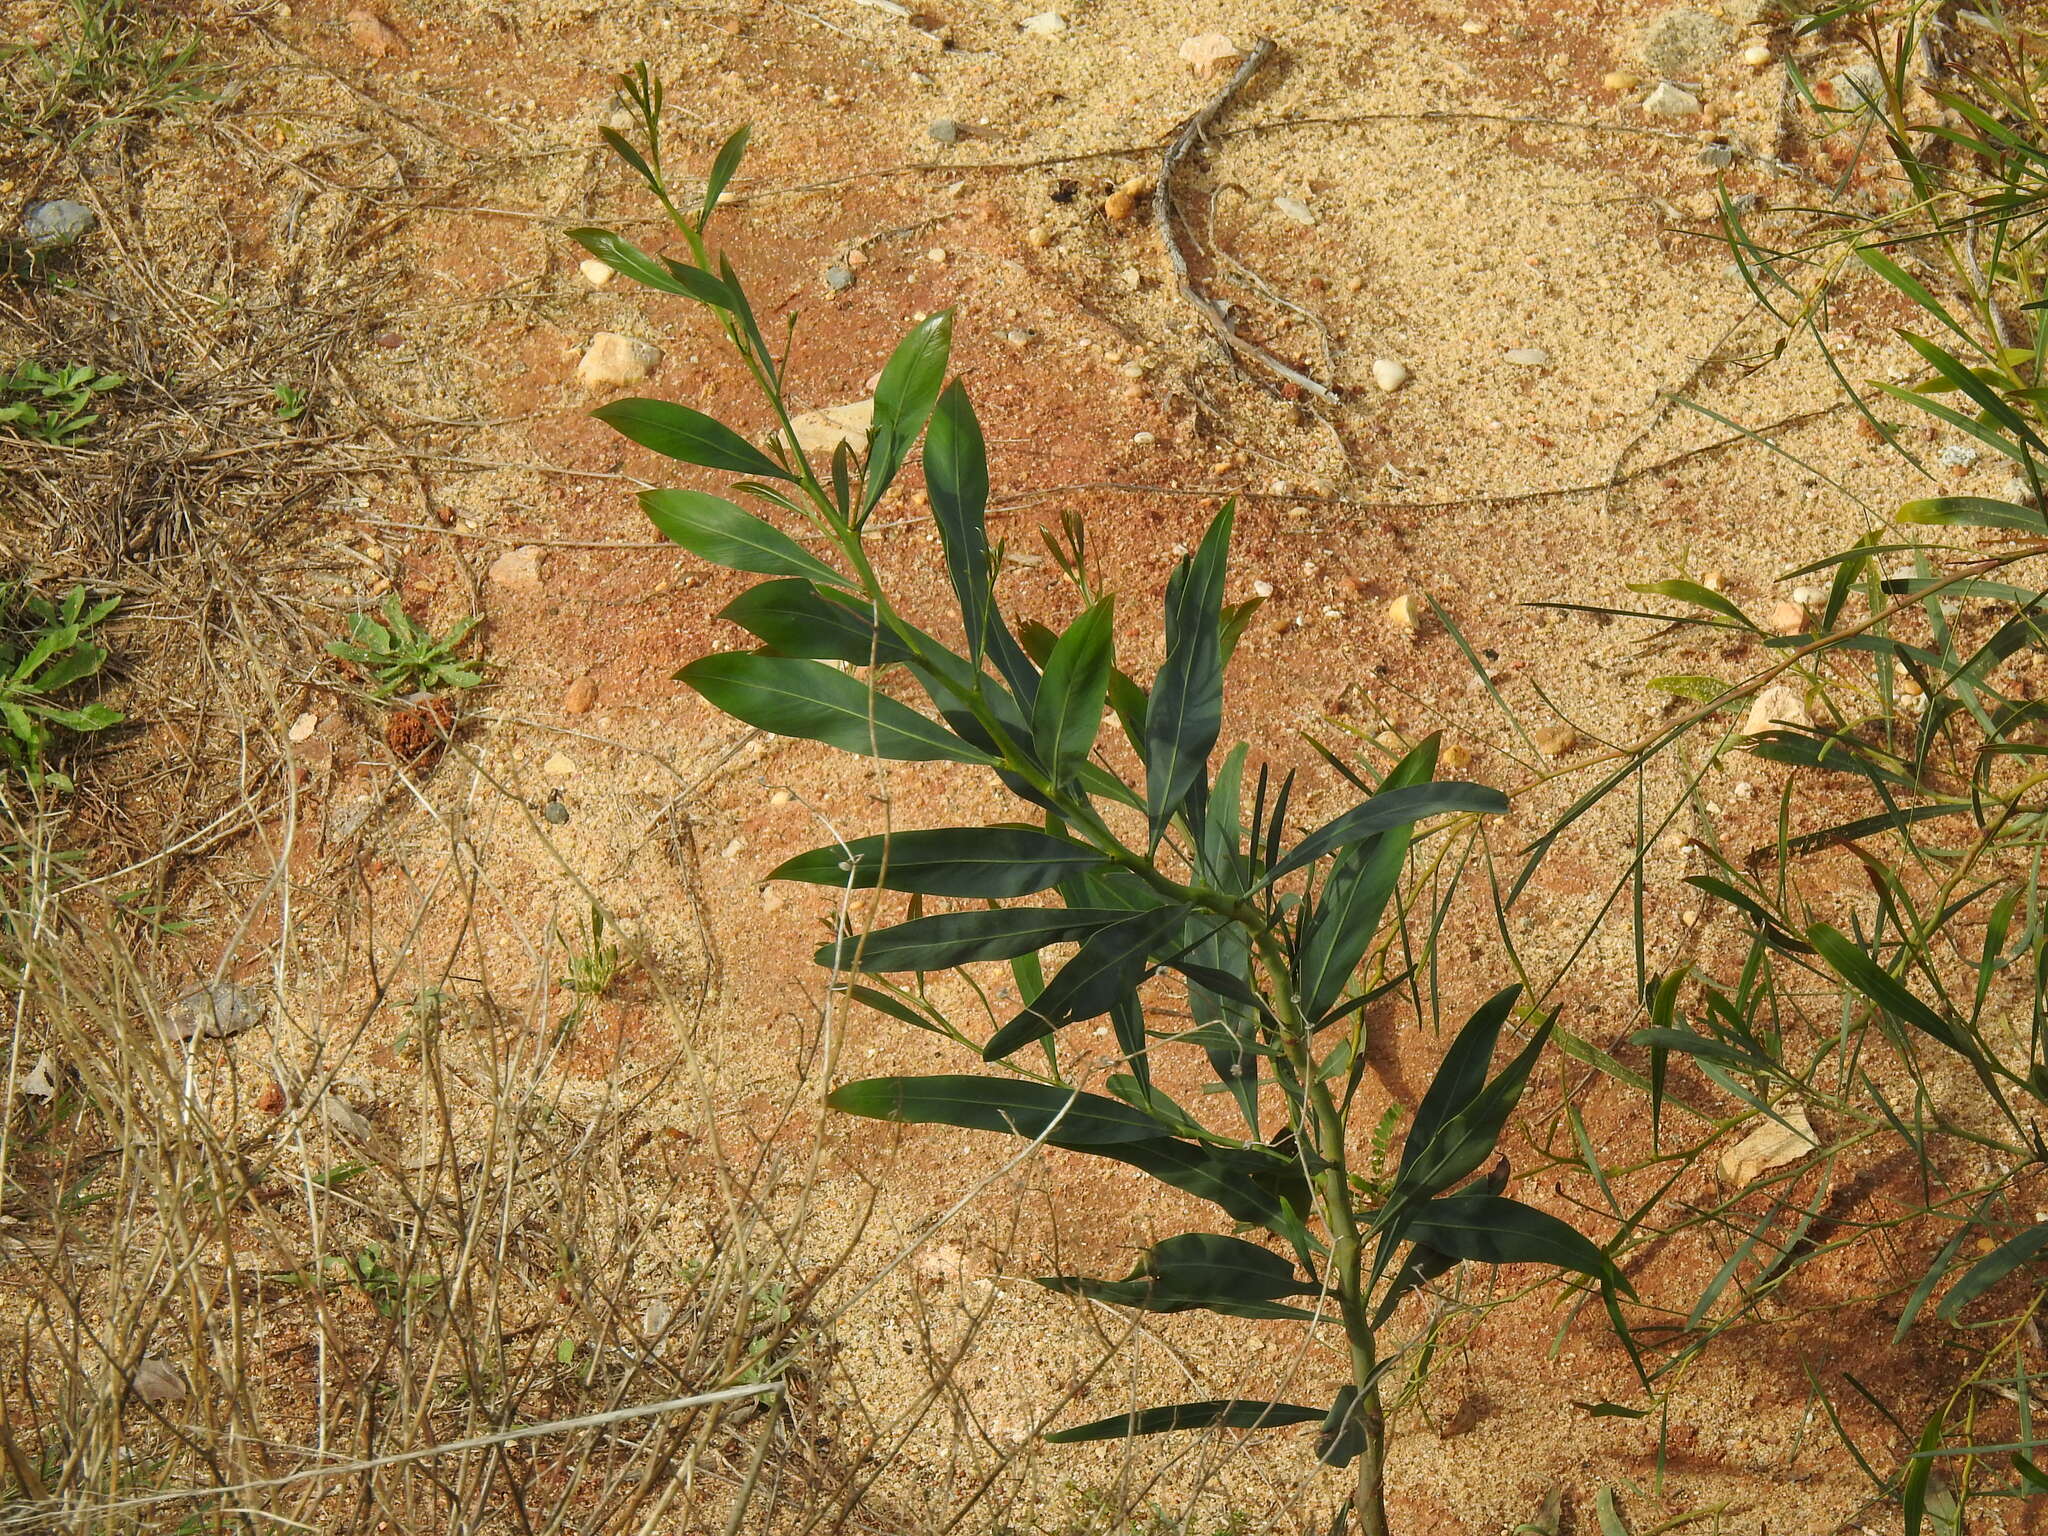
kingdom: Plantae
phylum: Tracheophyta
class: Magnoliopsida
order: Fabales
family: Fabaceae
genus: Acacia
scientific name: Acacia saligna
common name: Orange wattle
